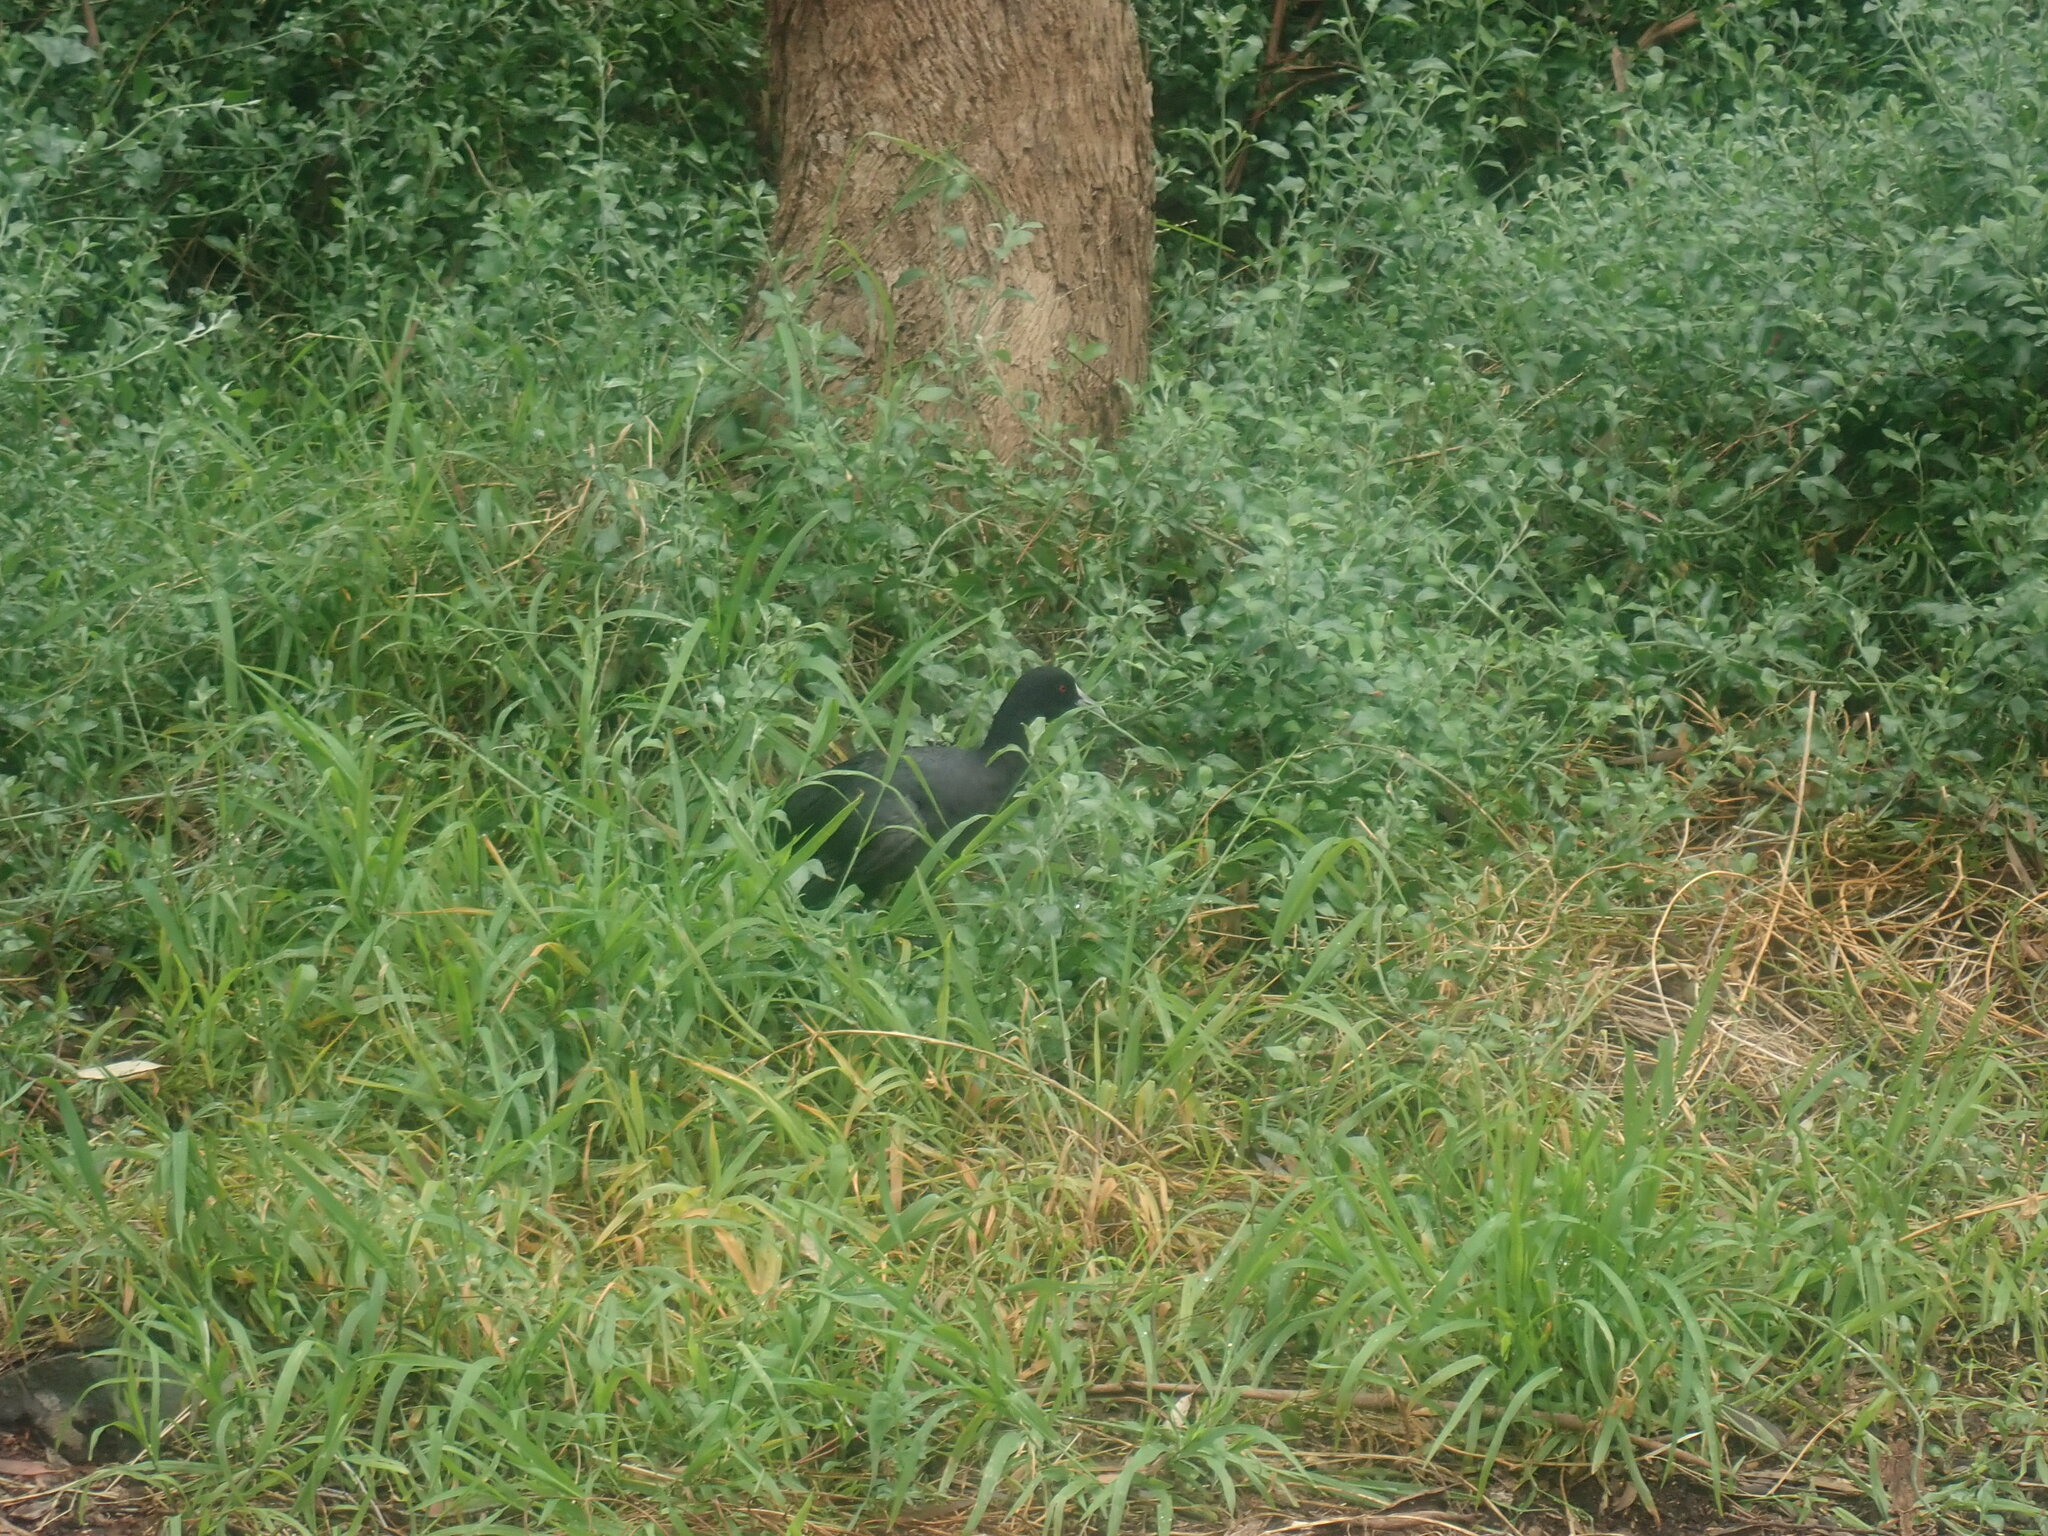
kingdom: Animalia
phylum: Chordata
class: Aves
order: Gruiformes
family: Rallidae
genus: Fulica
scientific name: Fulica atra
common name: Eurasian coot
